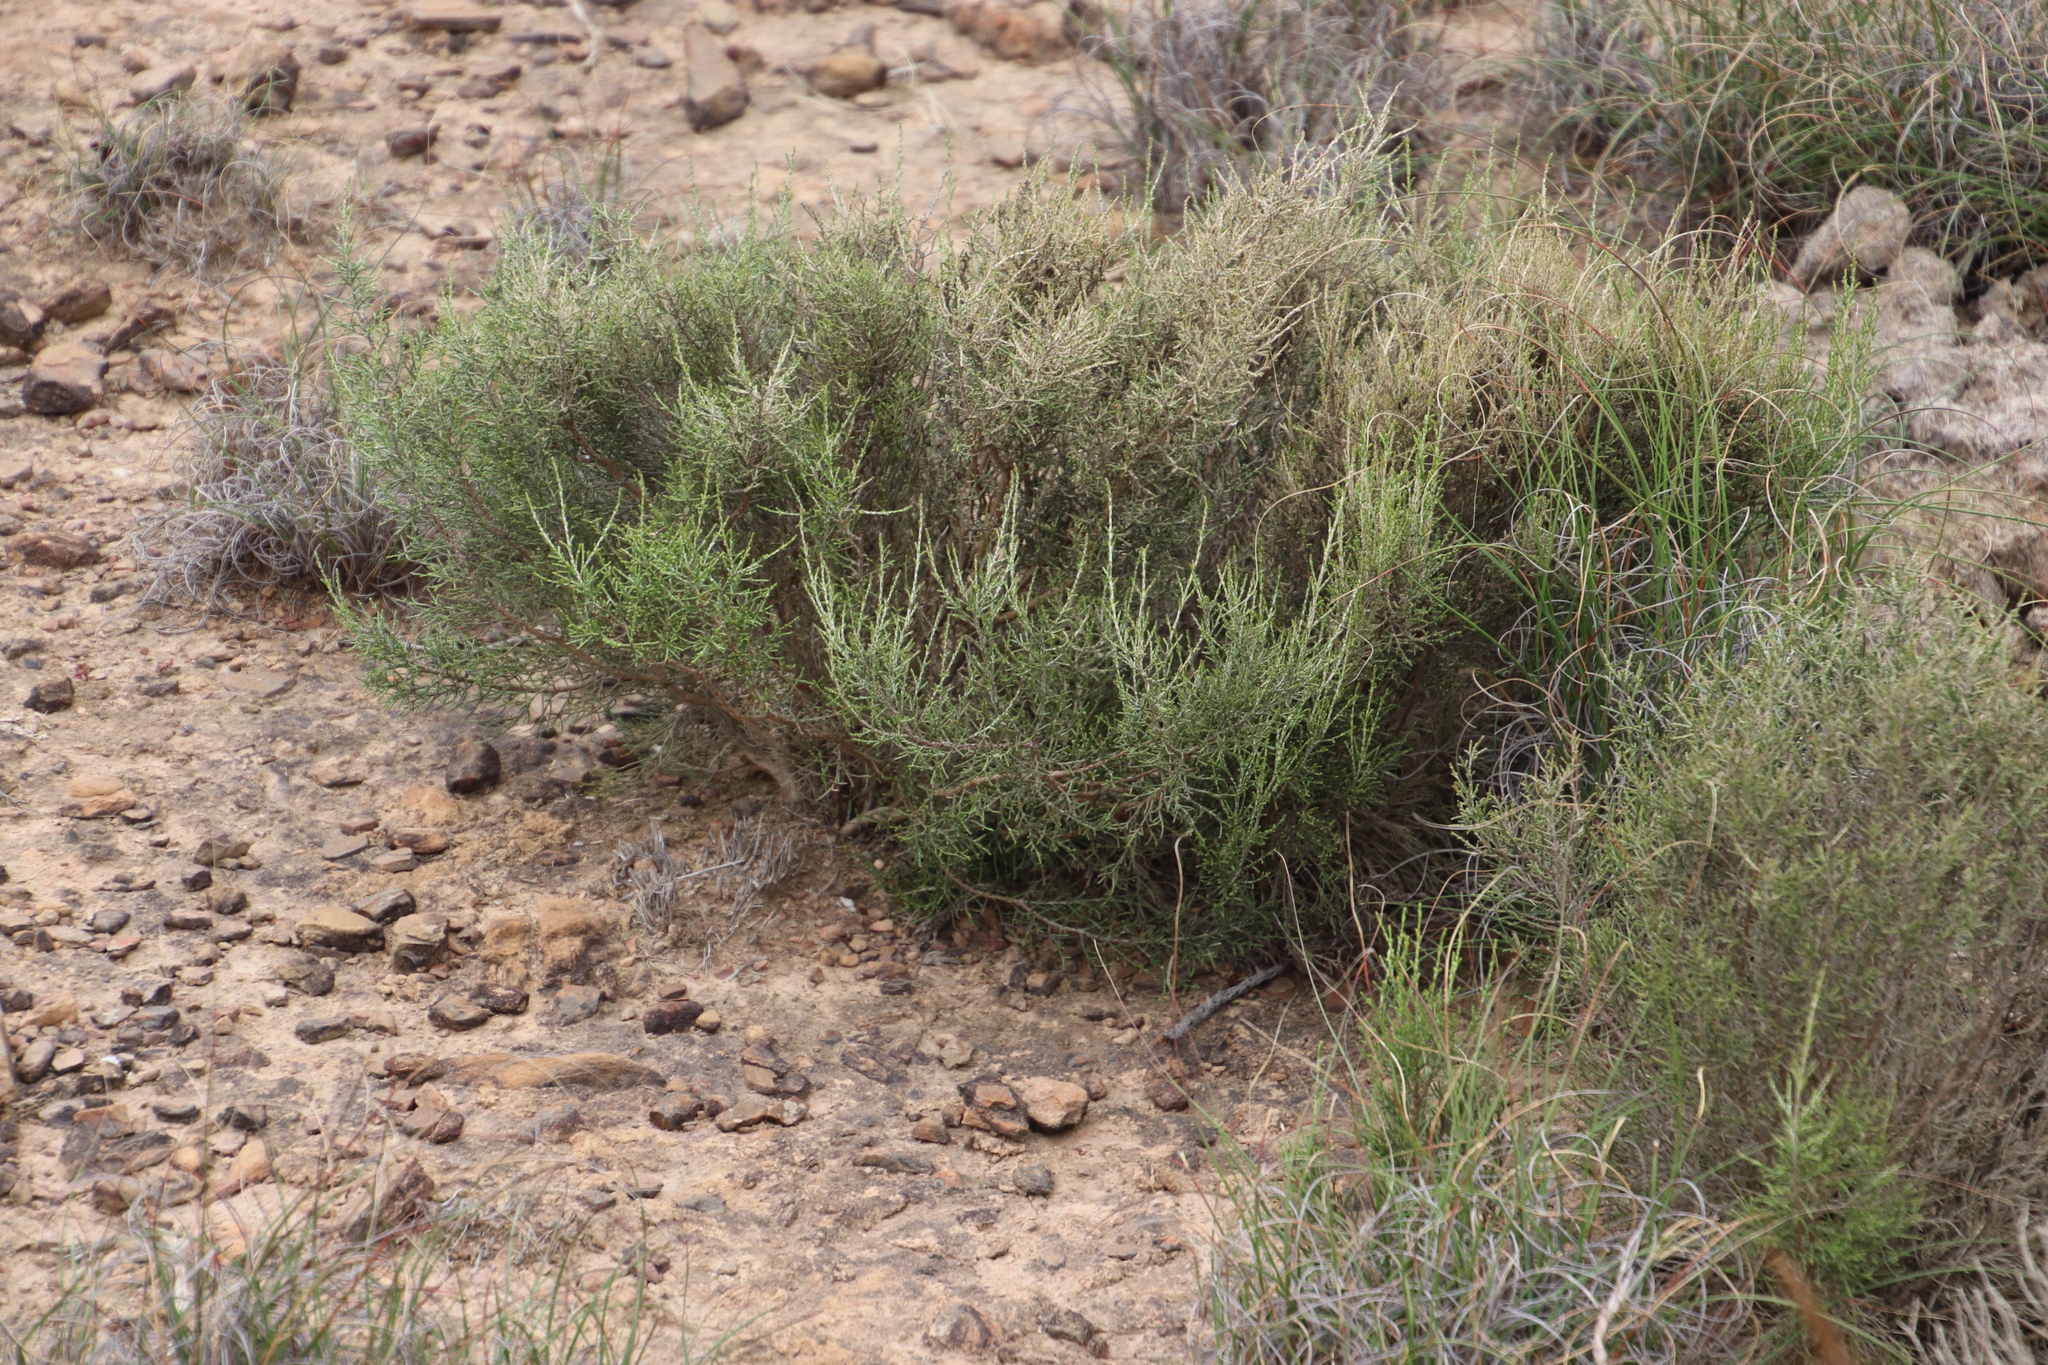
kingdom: Plantae
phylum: Tracheophyta
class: Magnoliopsida
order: Asterales
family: Asteraceae
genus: Dicerothamnus
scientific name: Dicerothamnus rhinocerotis
